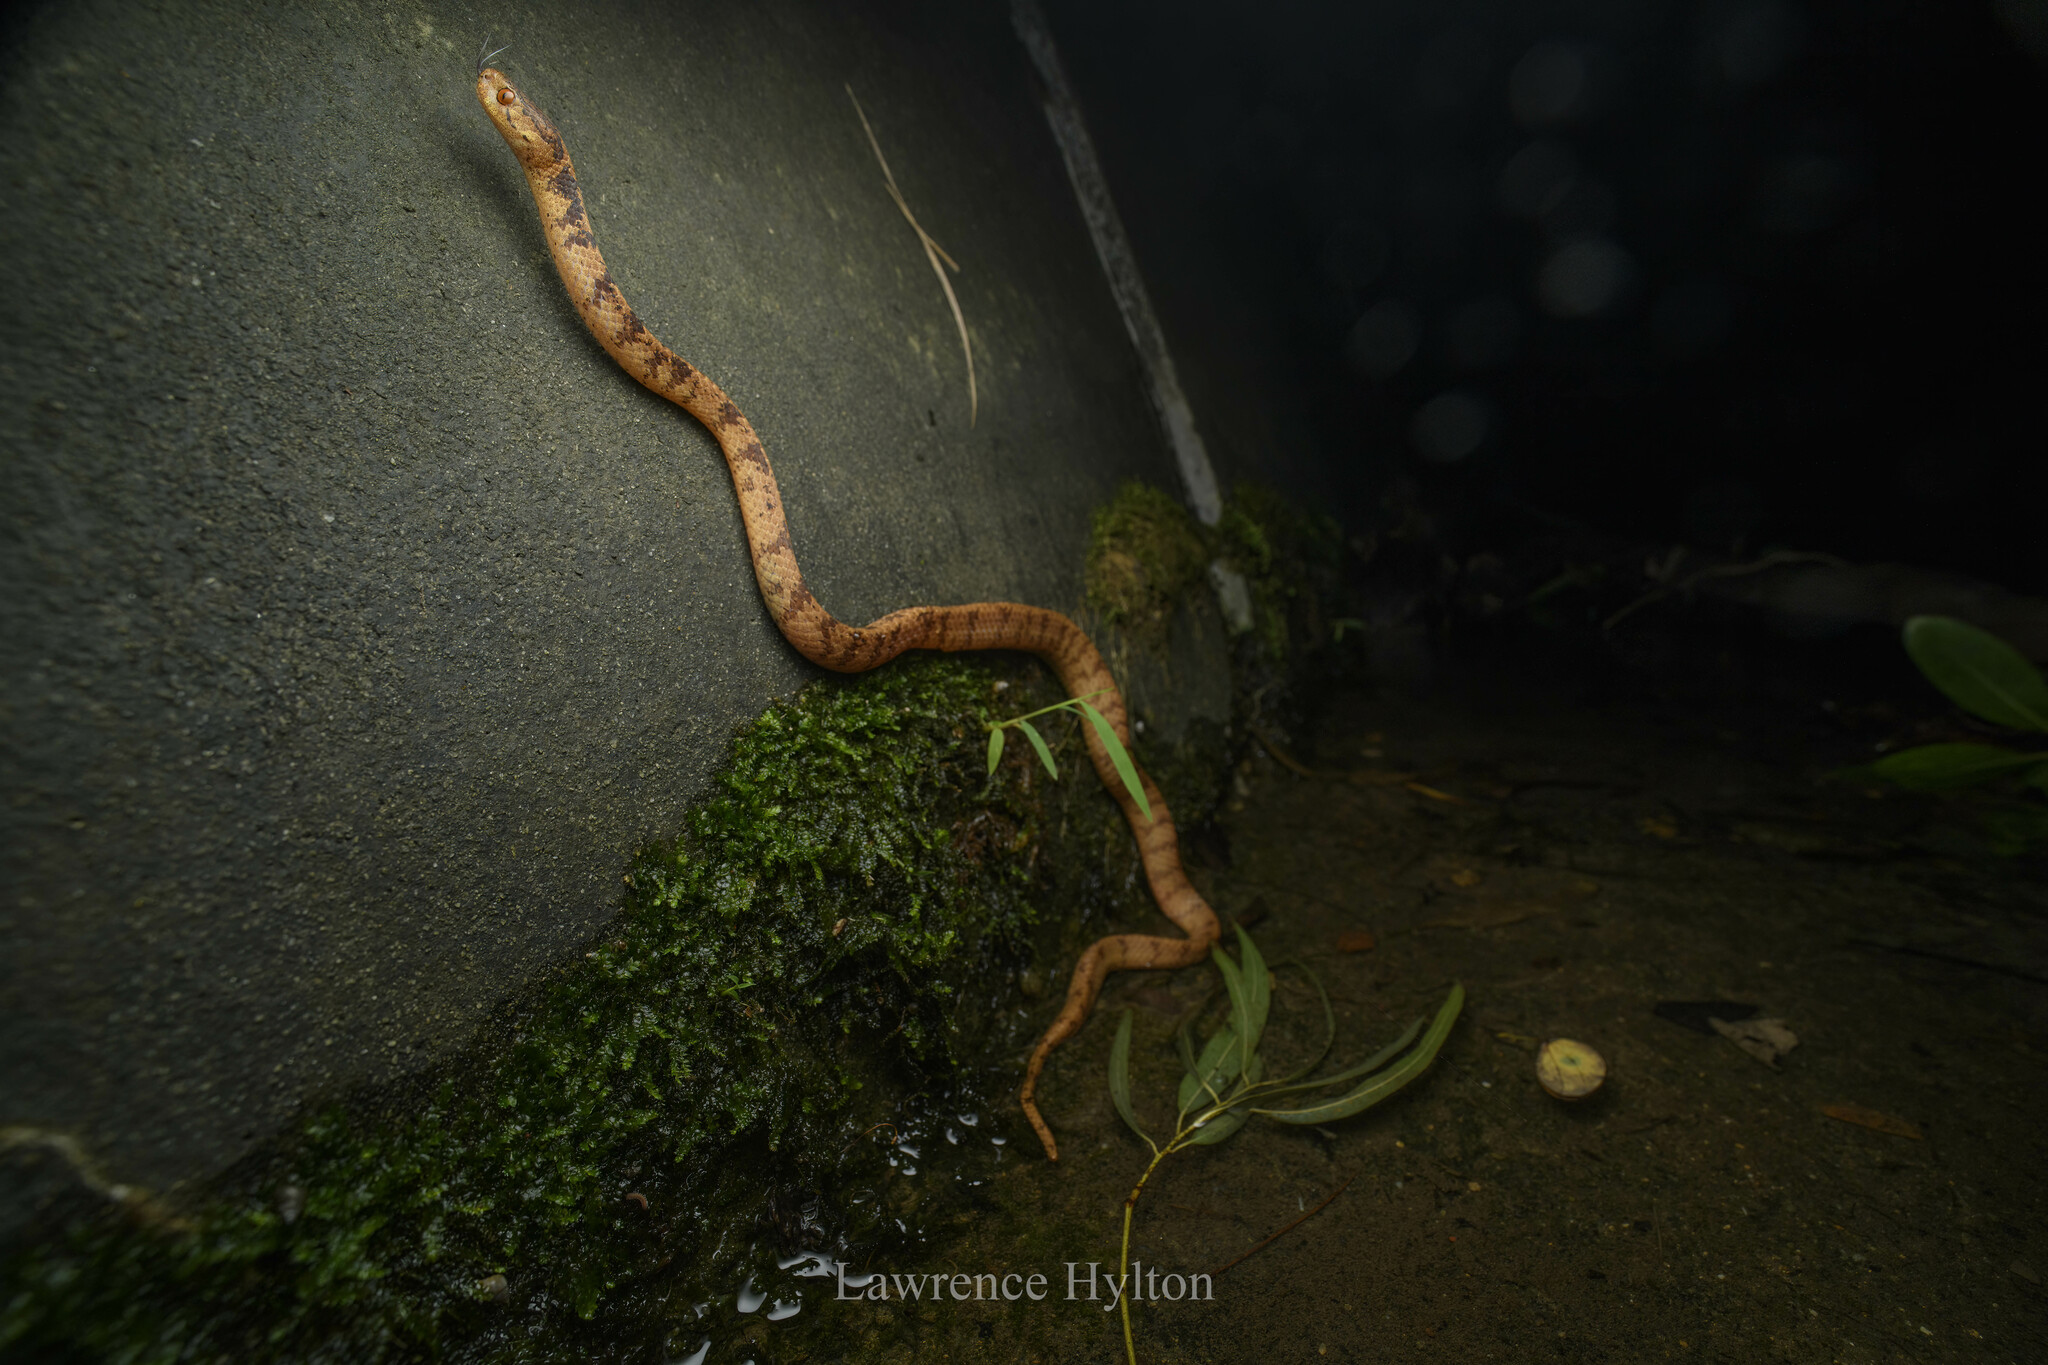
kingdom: Animalia
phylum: Chordata
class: Squamata
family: Pareidae
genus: Pareas
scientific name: Pareas chinensis
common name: Chinese slug snake
